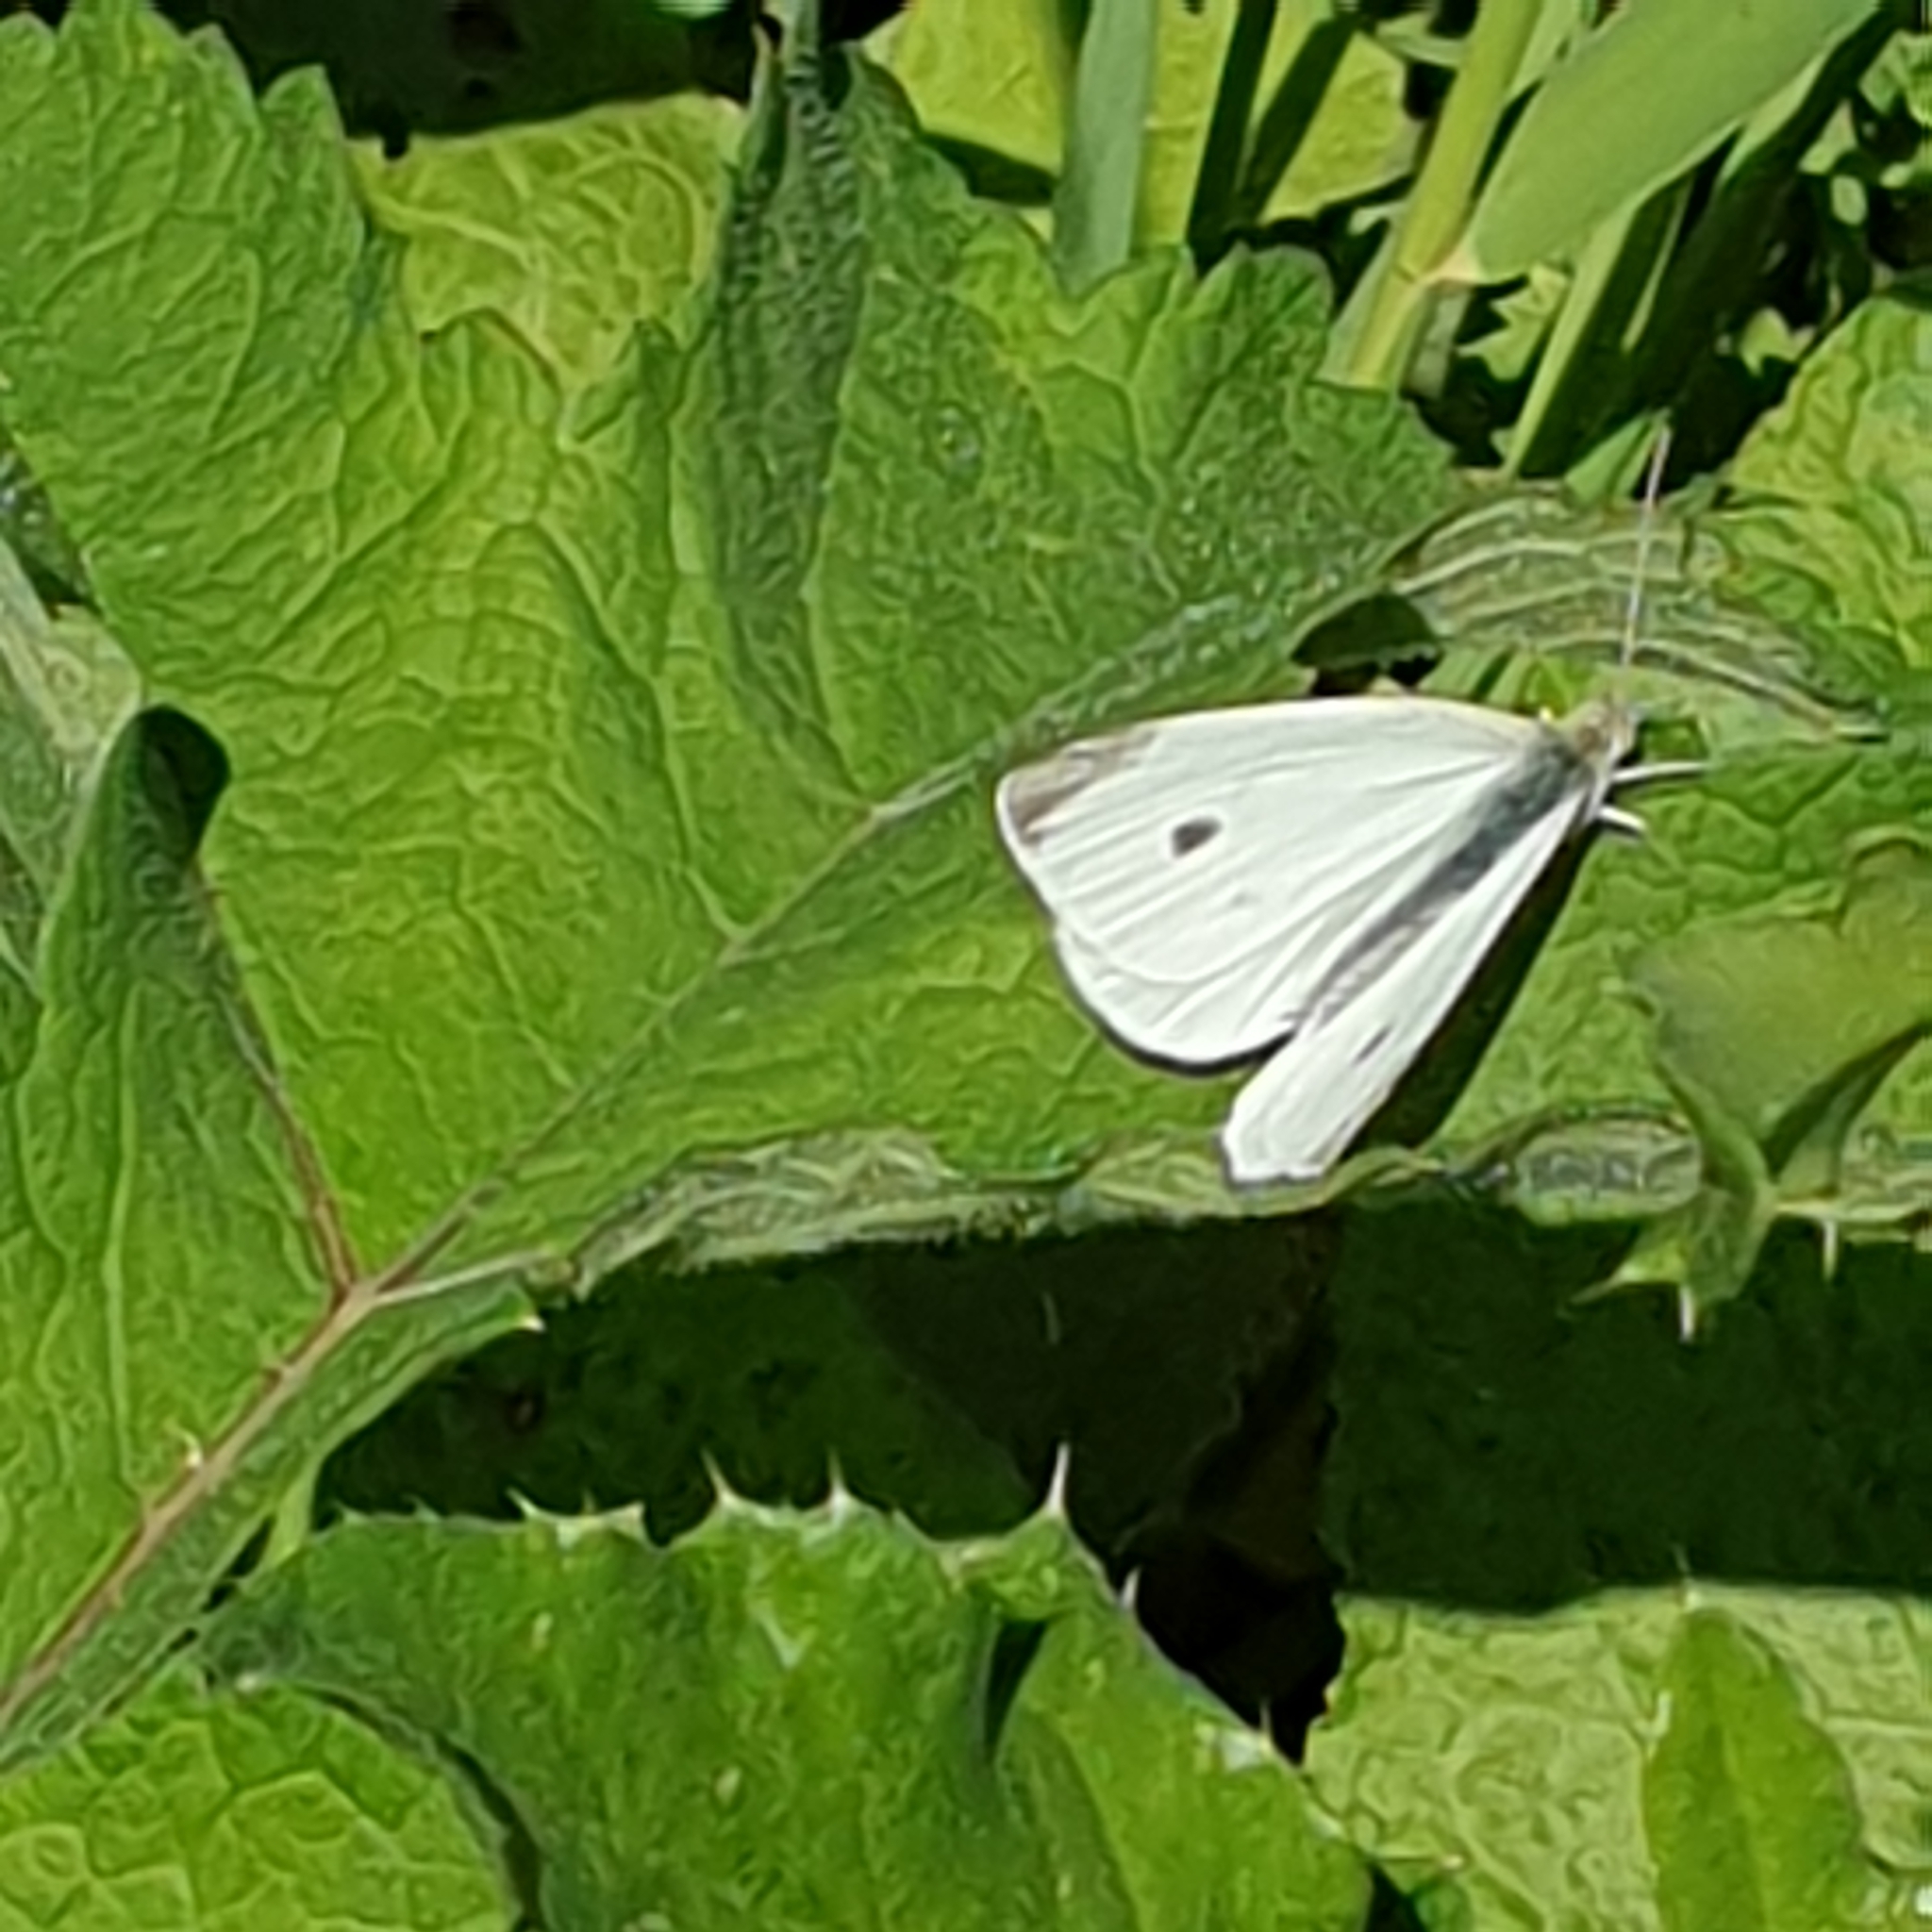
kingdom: Animalia
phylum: Arthropoda
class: Insecta
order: Lepidoptera
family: Pieridae
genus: Pieris
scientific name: Pieris rapae
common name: Small white
